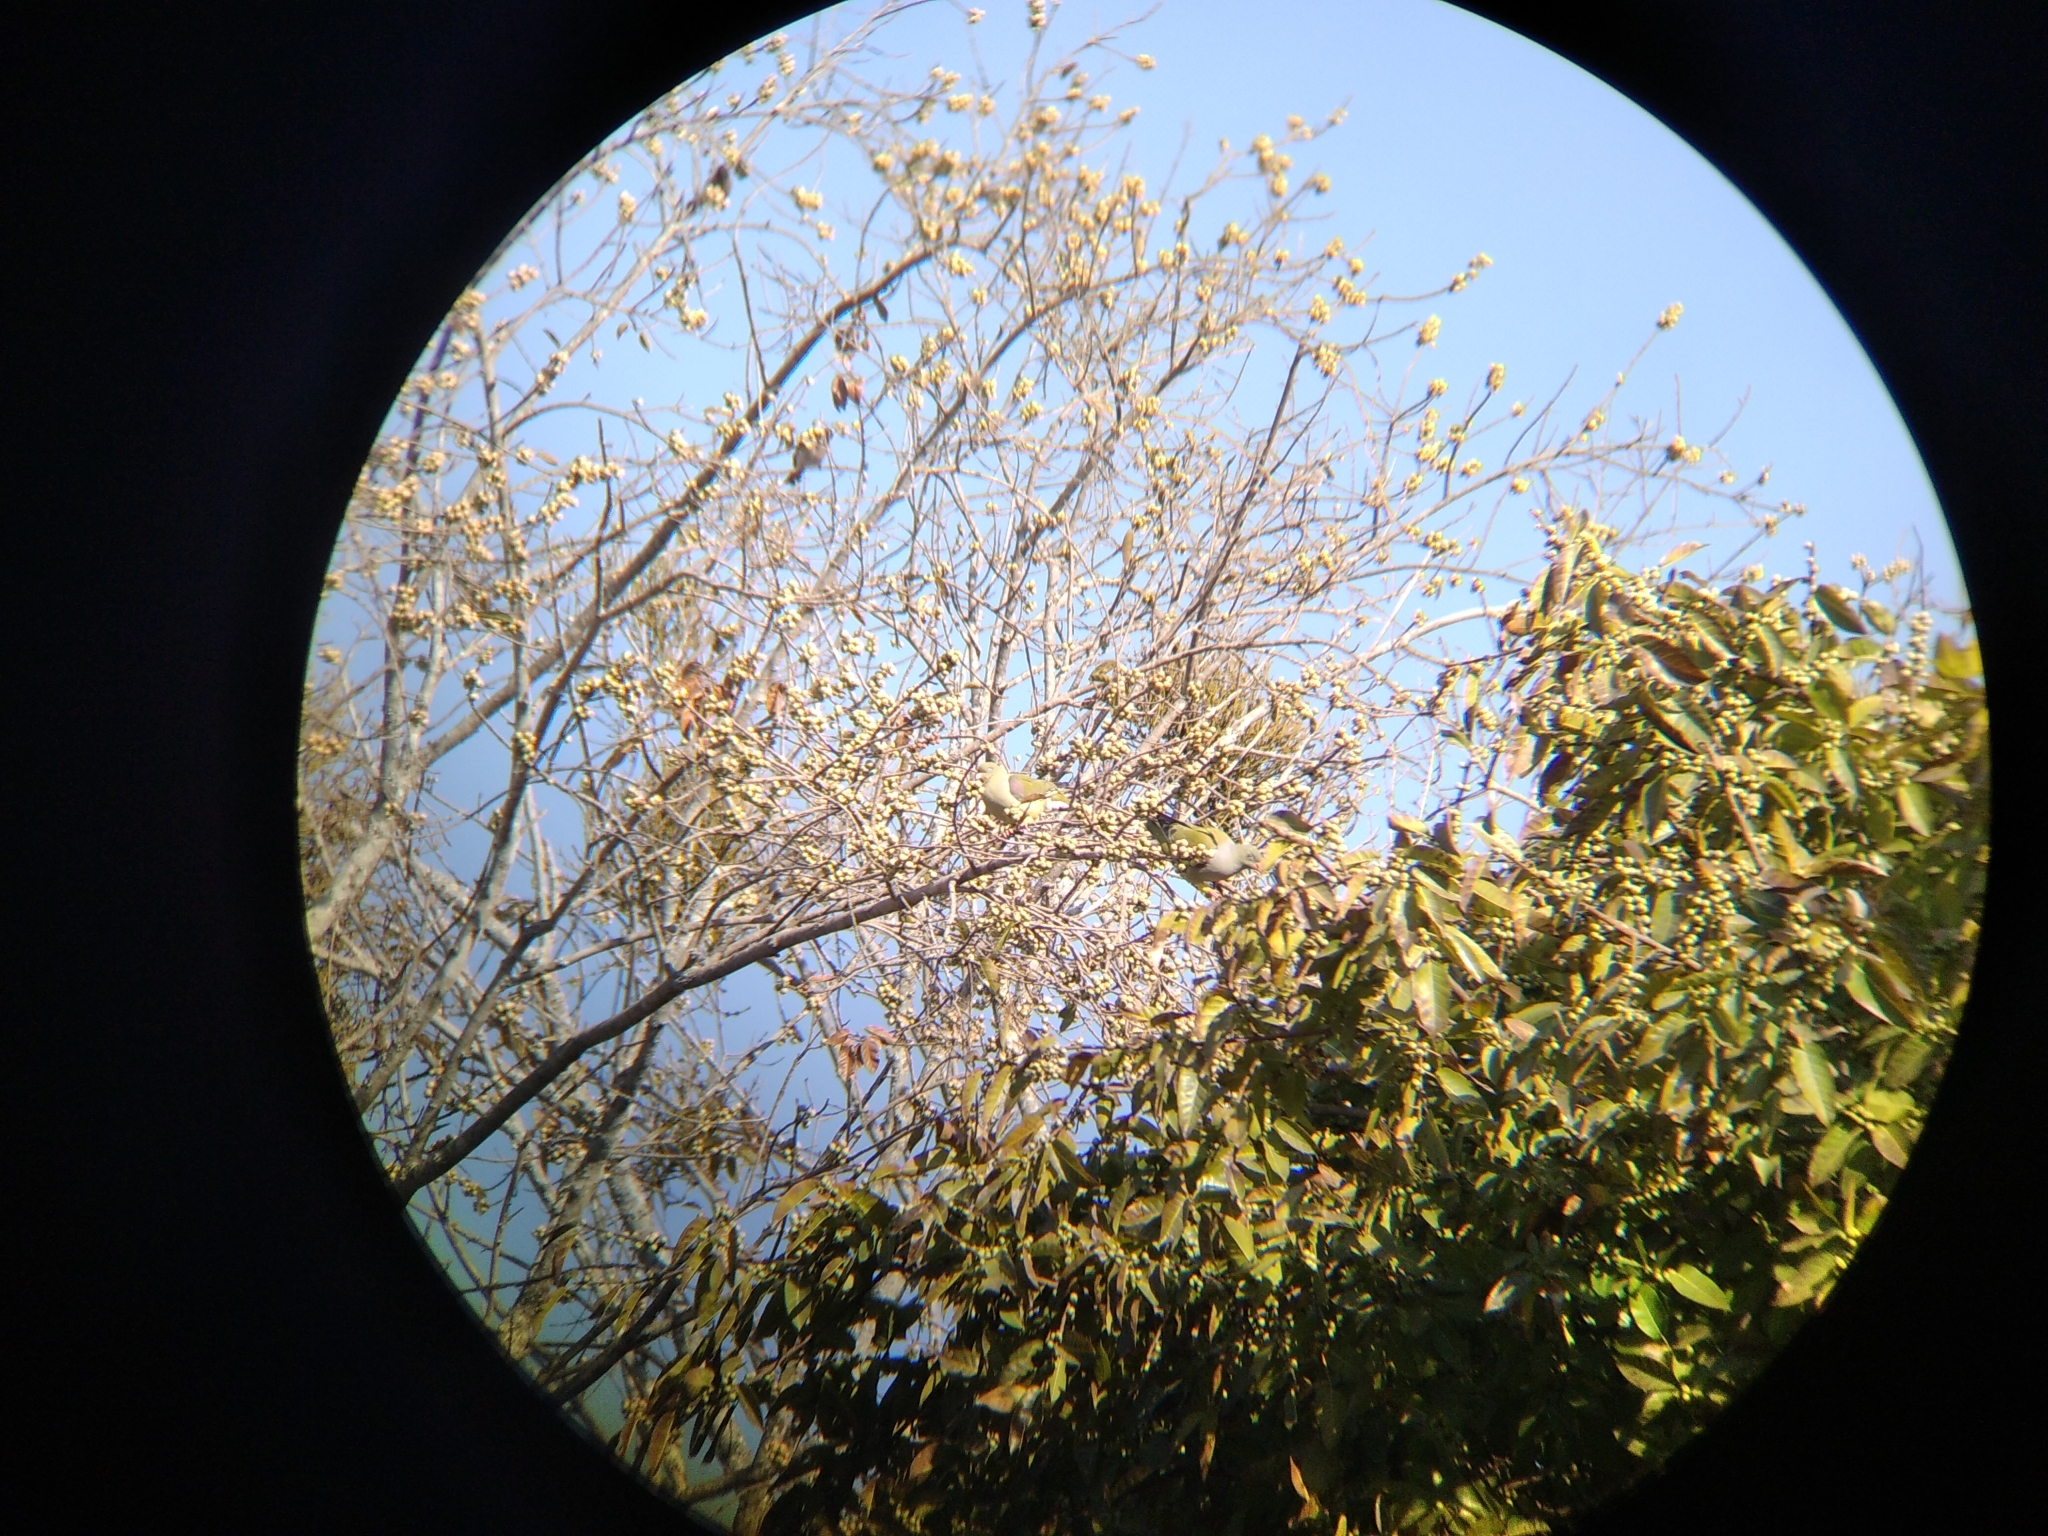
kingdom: Animalia
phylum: Chordata
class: Aves
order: Columbiformes
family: Columbidae
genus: Treron
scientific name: Treron calvus
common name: African green pigeon
